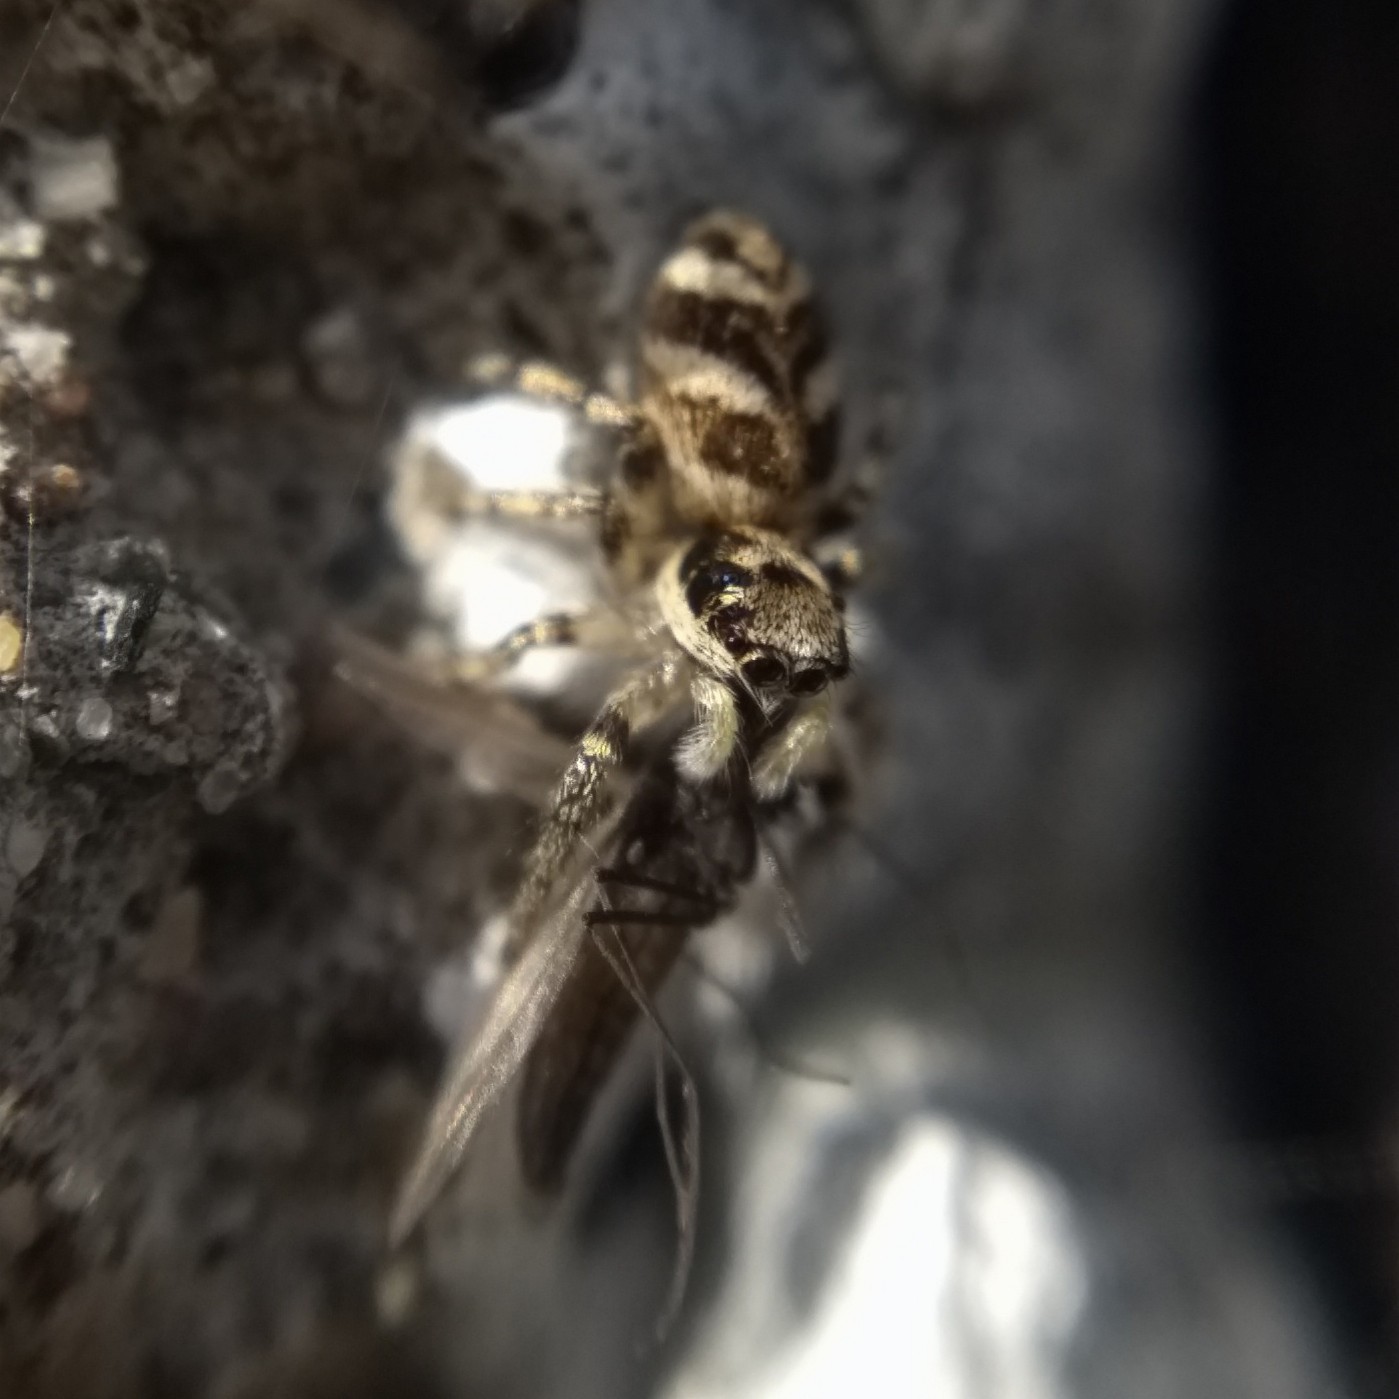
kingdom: Animalia
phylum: Arthropoda
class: Arachnida
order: Araneae
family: Salticidae
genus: Salticus
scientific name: Salticus scenicus
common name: Zebra jumper
